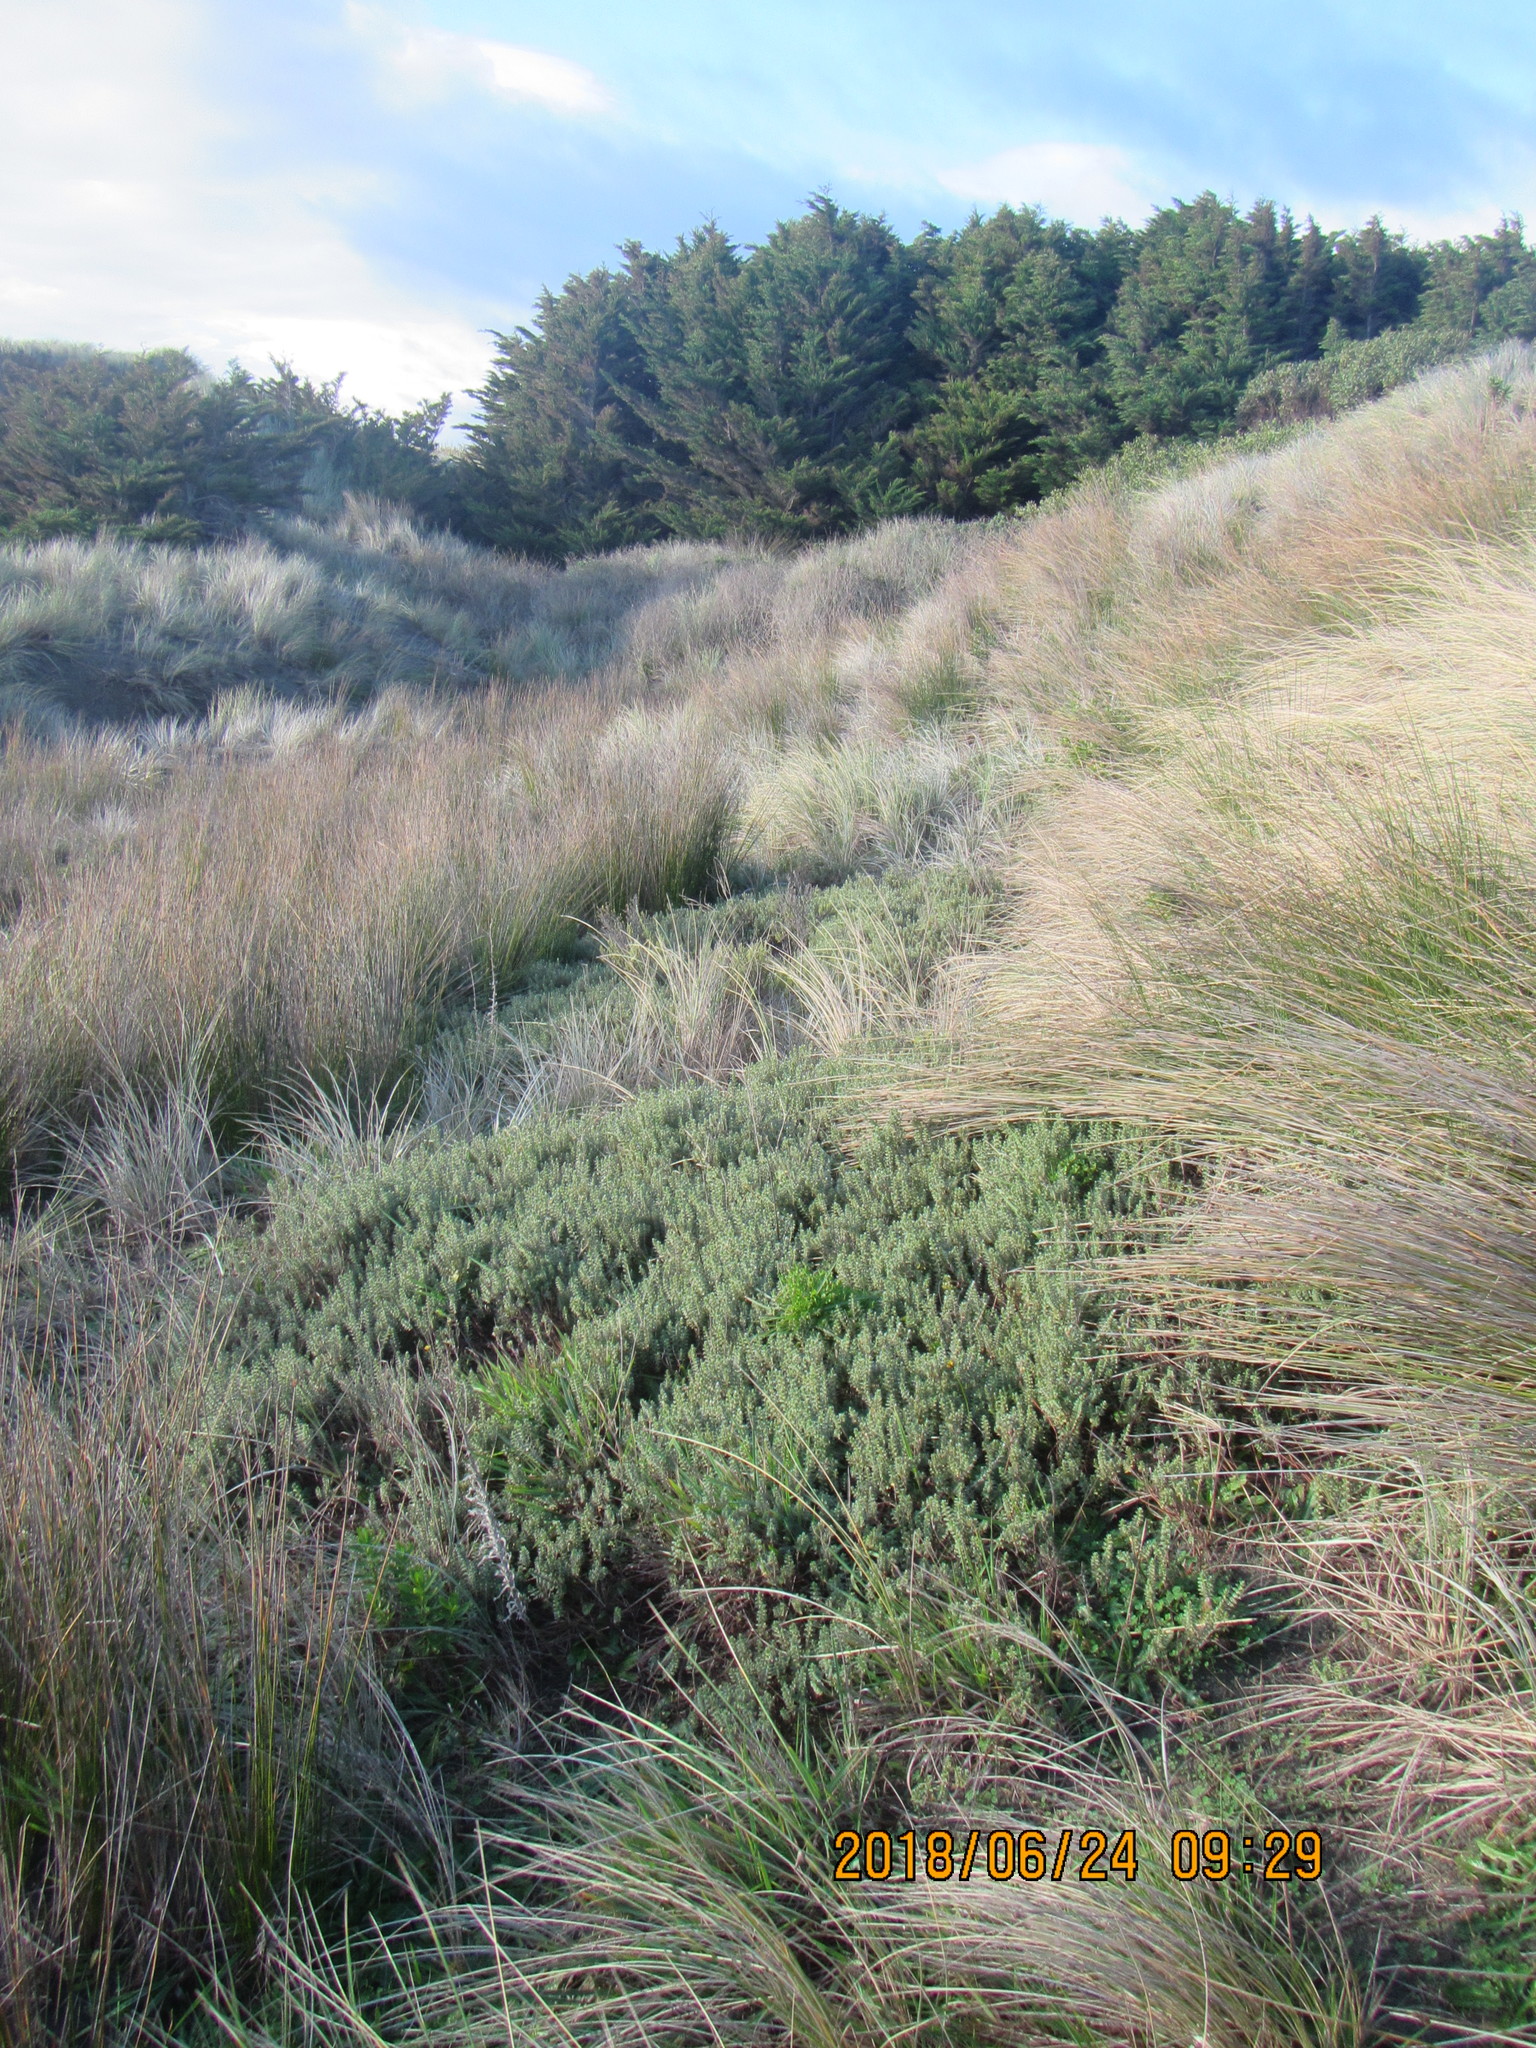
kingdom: Plantae
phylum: Tracheophyta
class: Magnoliopsida
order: Malvales
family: Thymelaeaceae
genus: Pimelea
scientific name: Pimelea villosa
